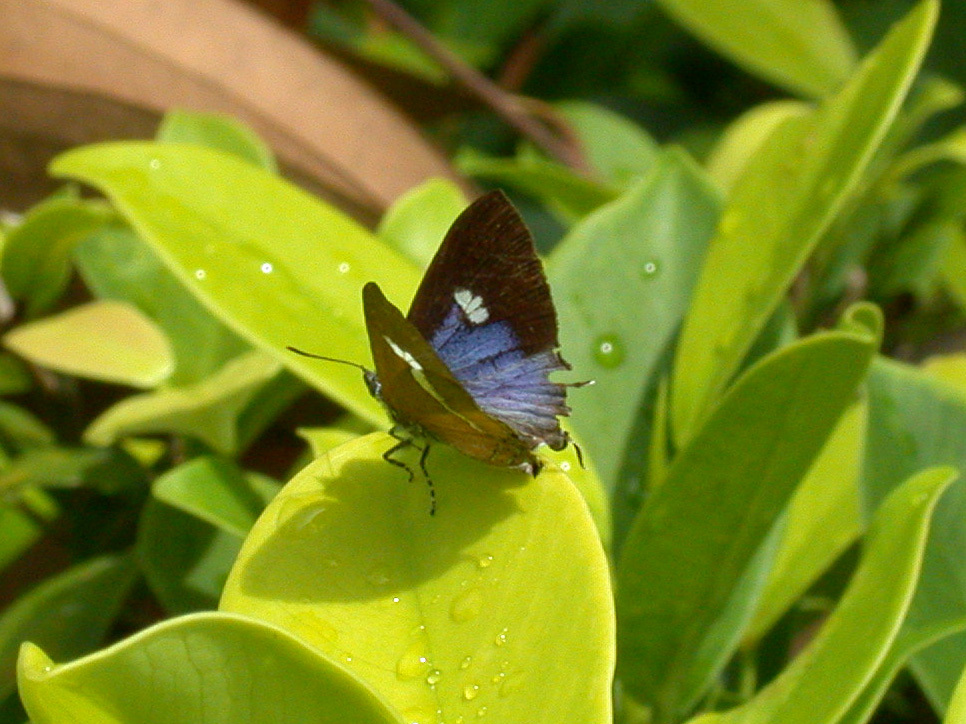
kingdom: Animalia
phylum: Arthropoda
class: Insecta
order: Lepidoptera
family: Lycaenidae
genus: Horaga
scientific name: Horaga syrinx
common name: Ambon onyx
